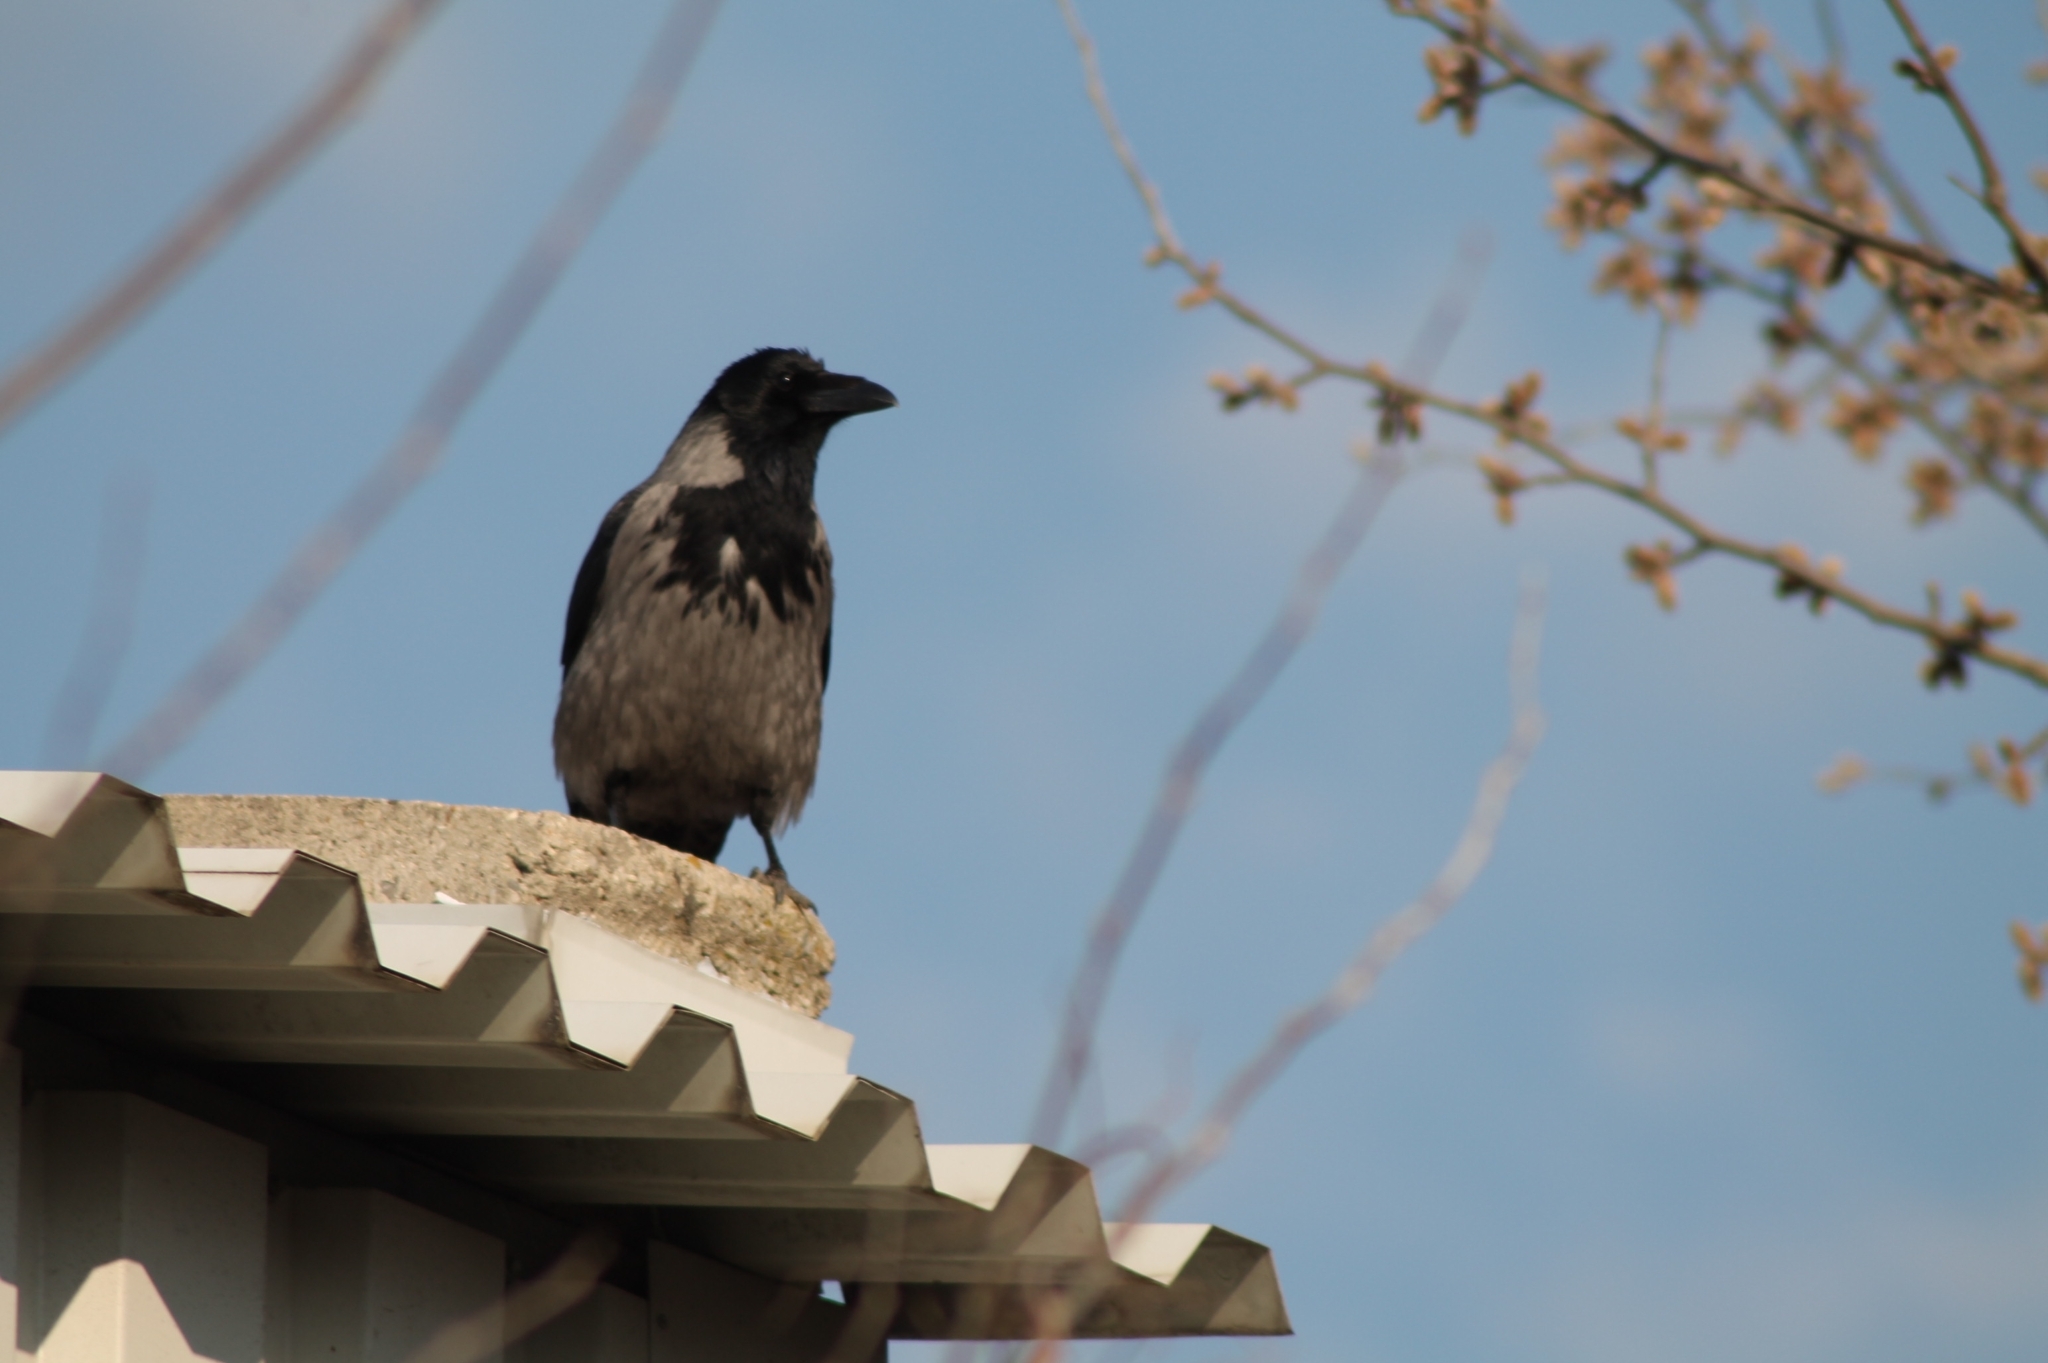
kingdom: Animalia
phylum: Chordata
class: Aves
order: Passeriformes
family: Corvidae
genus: Corvus
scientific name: Corvus cornix
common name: Hooded crow
